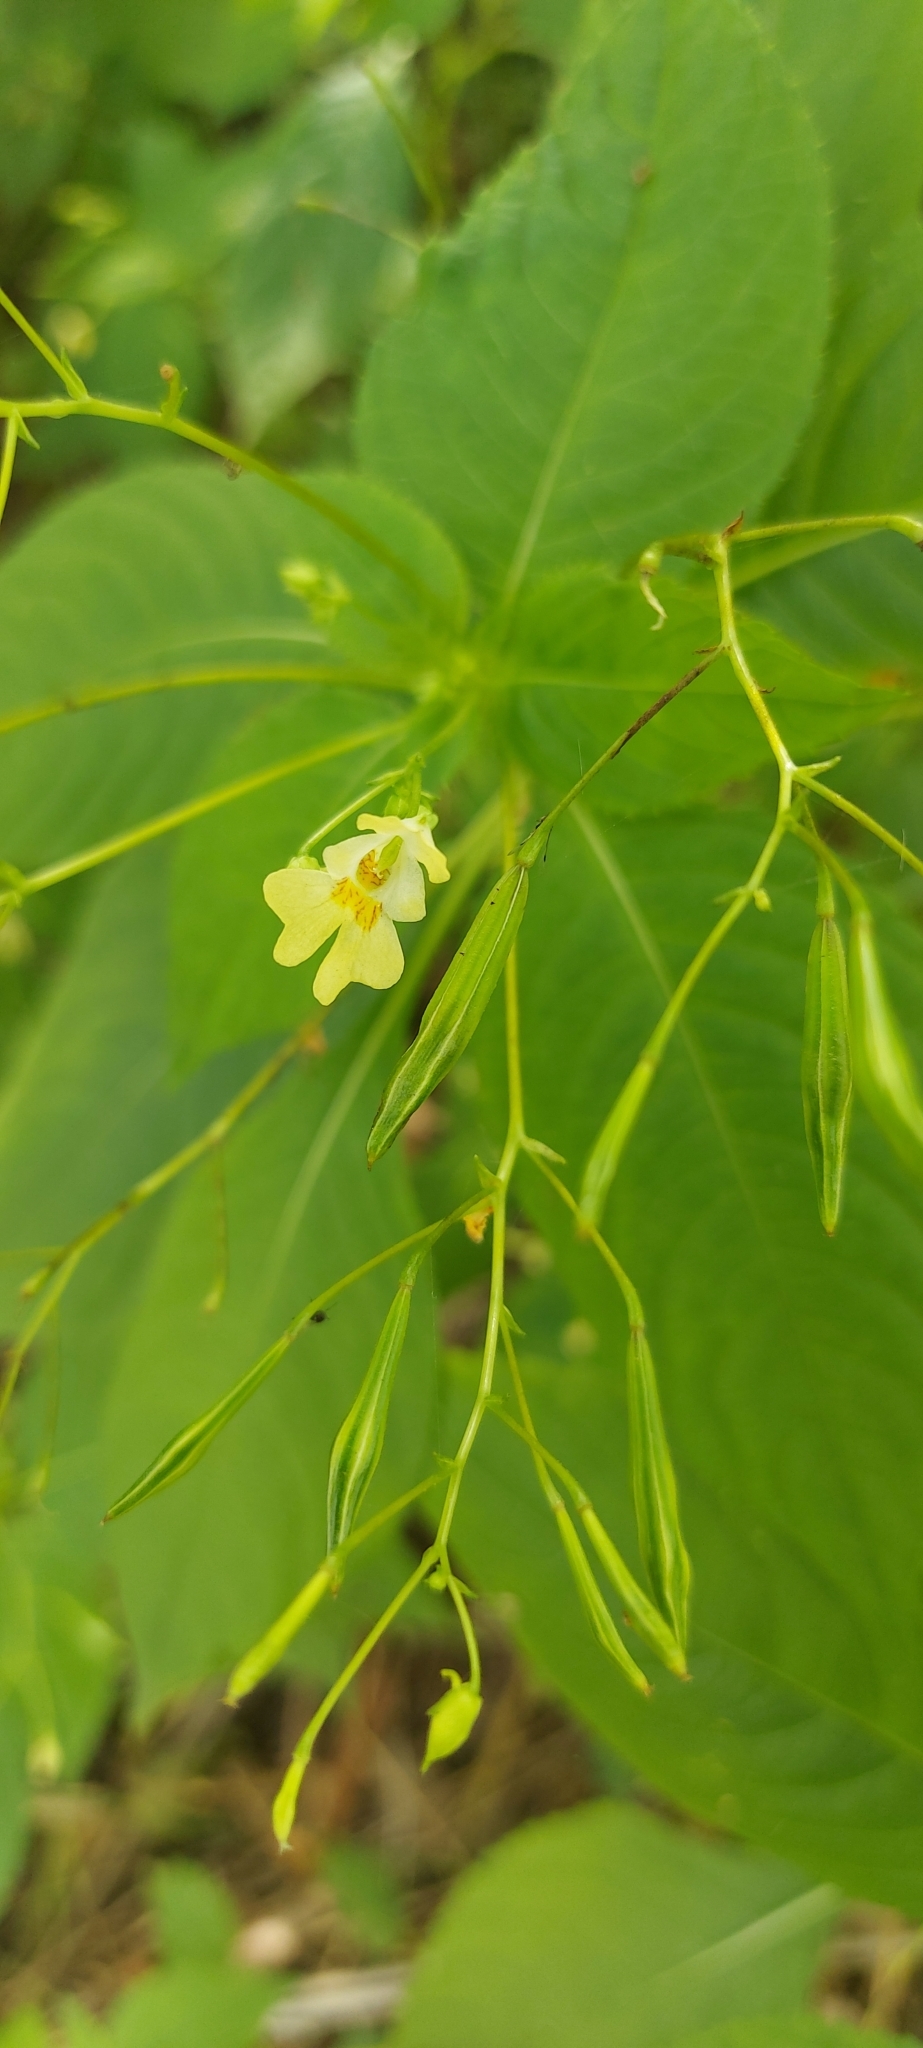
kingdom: Plantae
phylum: Tracheophyta
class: Magnoliopsida
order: Ericales
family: Balsaminaceae
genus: Impatiens
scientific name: Impatiens parviflora
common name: Small balsam
